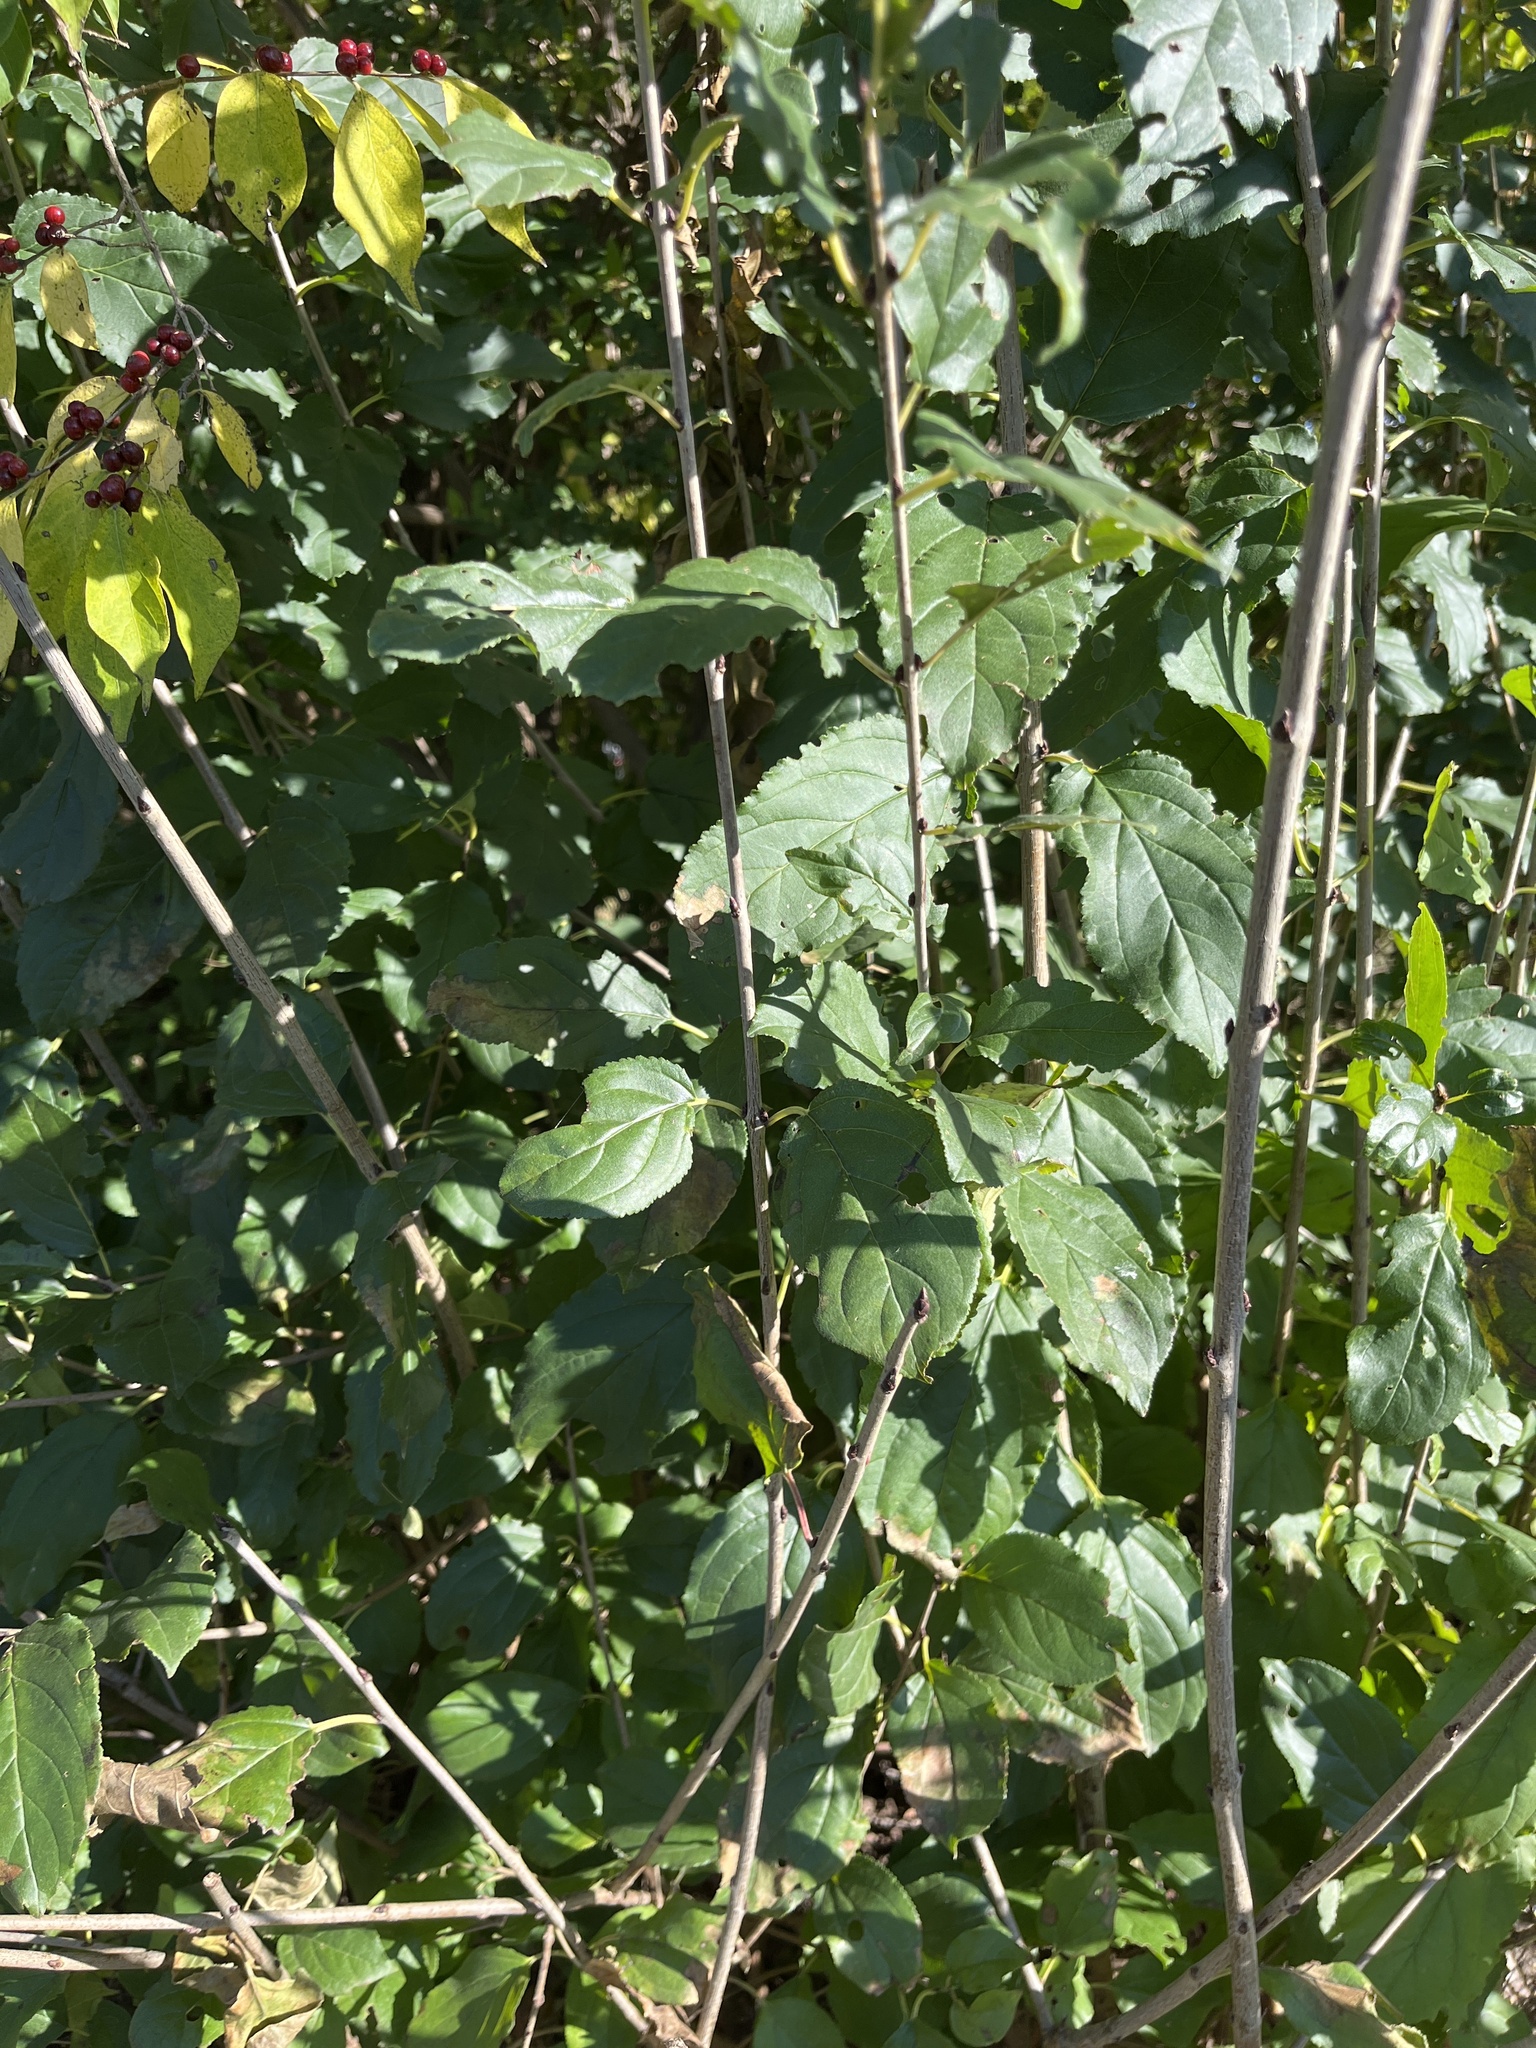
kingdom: Plantae
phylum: Tracheophyta
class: Magnoliopsida
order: Rosales
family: Rhamnaceae
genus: Rhamnus
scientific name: Rhamnus cathartica
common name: Common buckthorn
